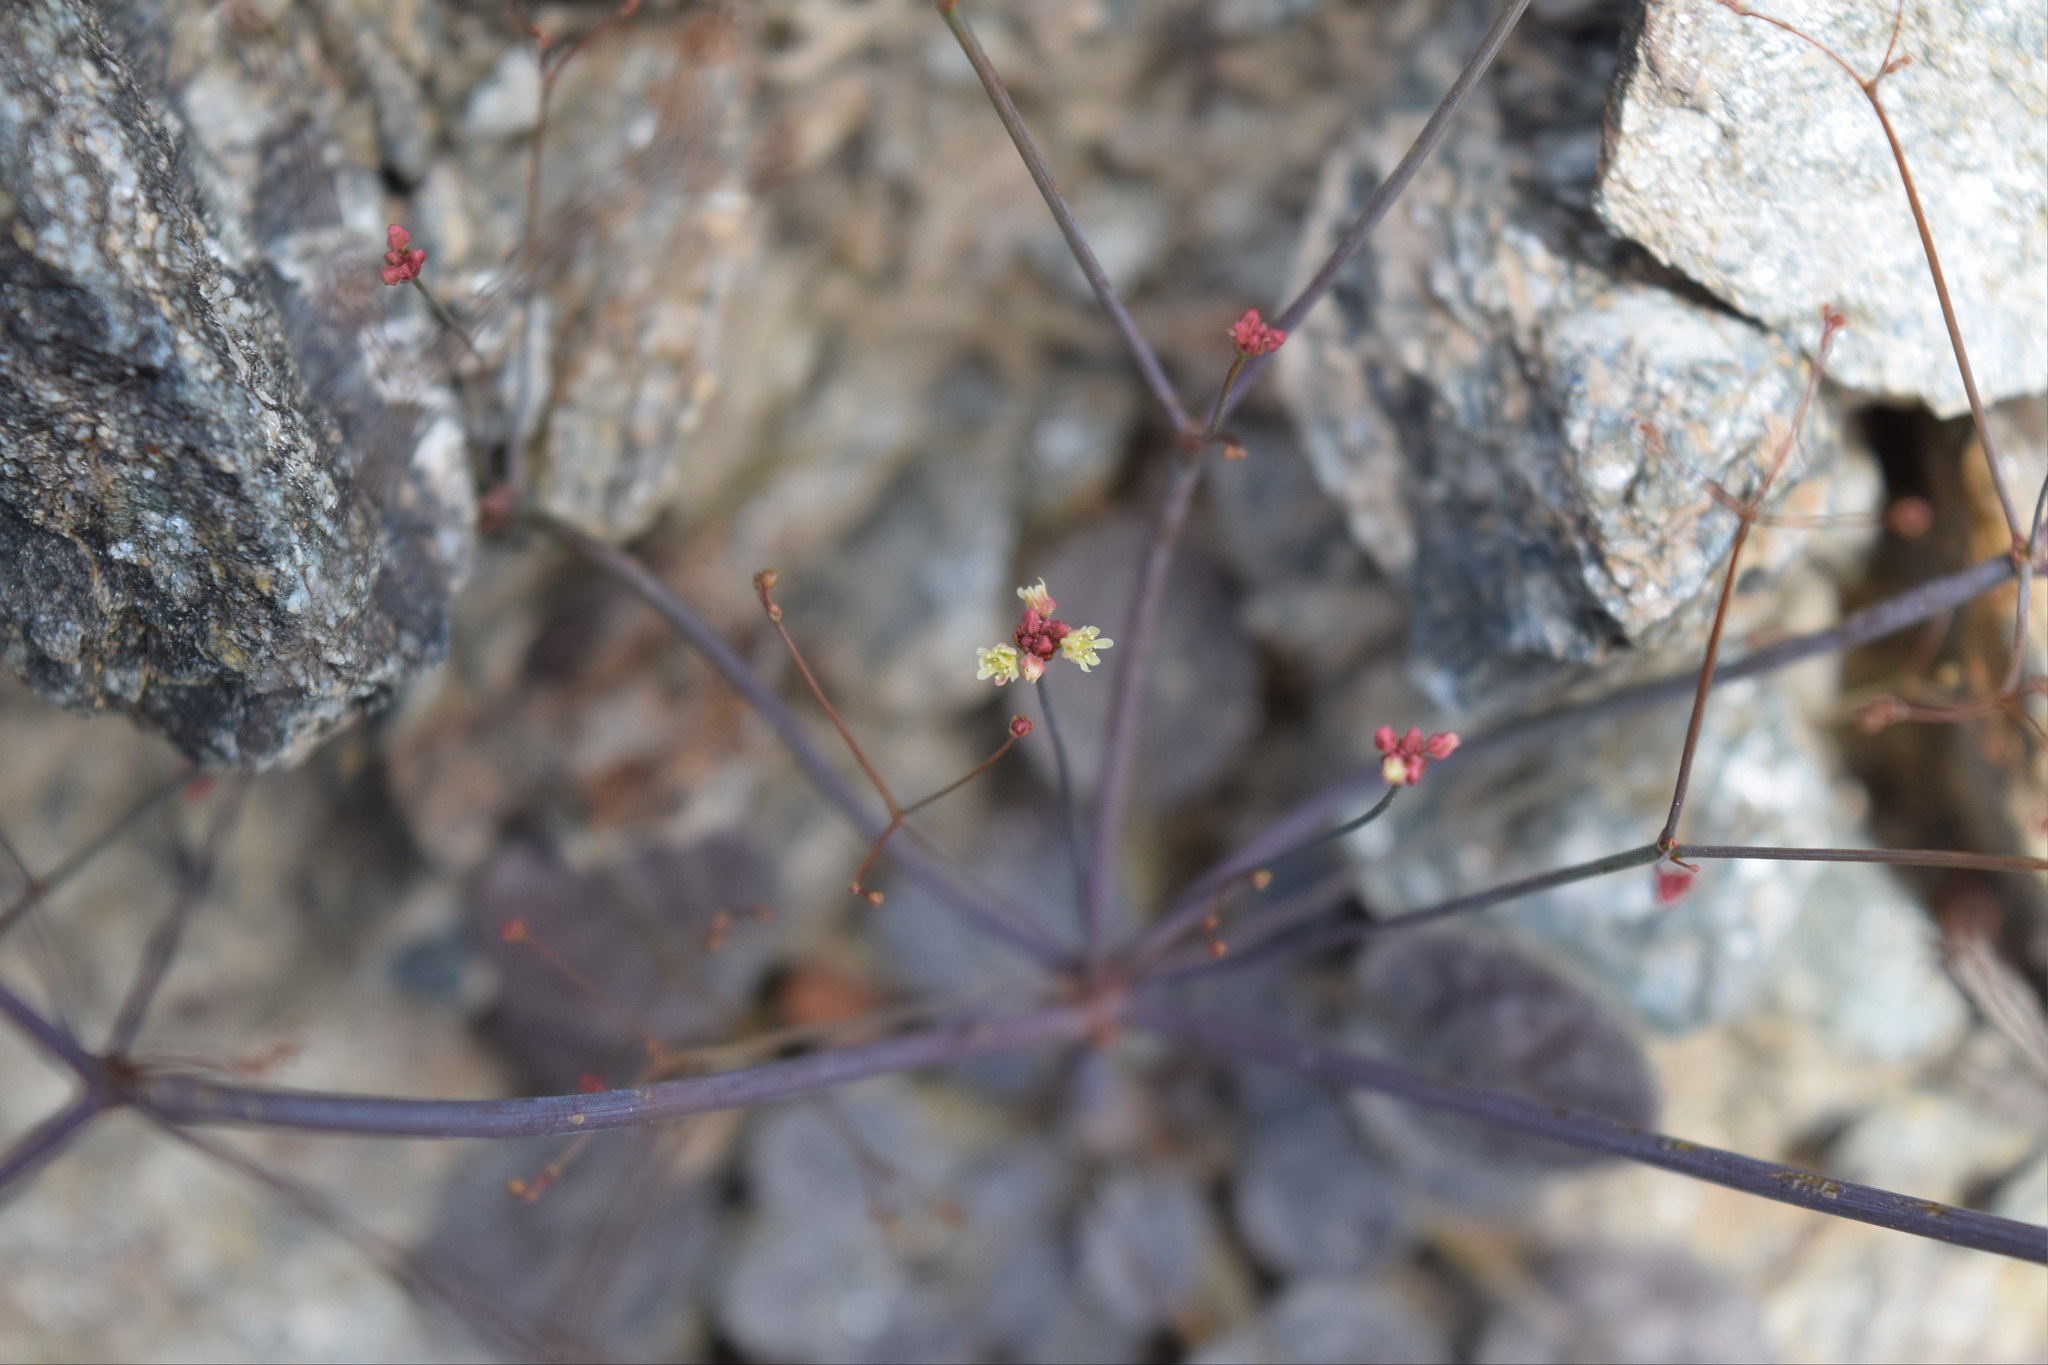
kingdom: Plantae
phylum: Tracheophyta
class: Magnoliopsida
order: Caryophyllales
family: Polygonaceae
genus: Eriogonum
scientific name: Eriogonum thomasii
